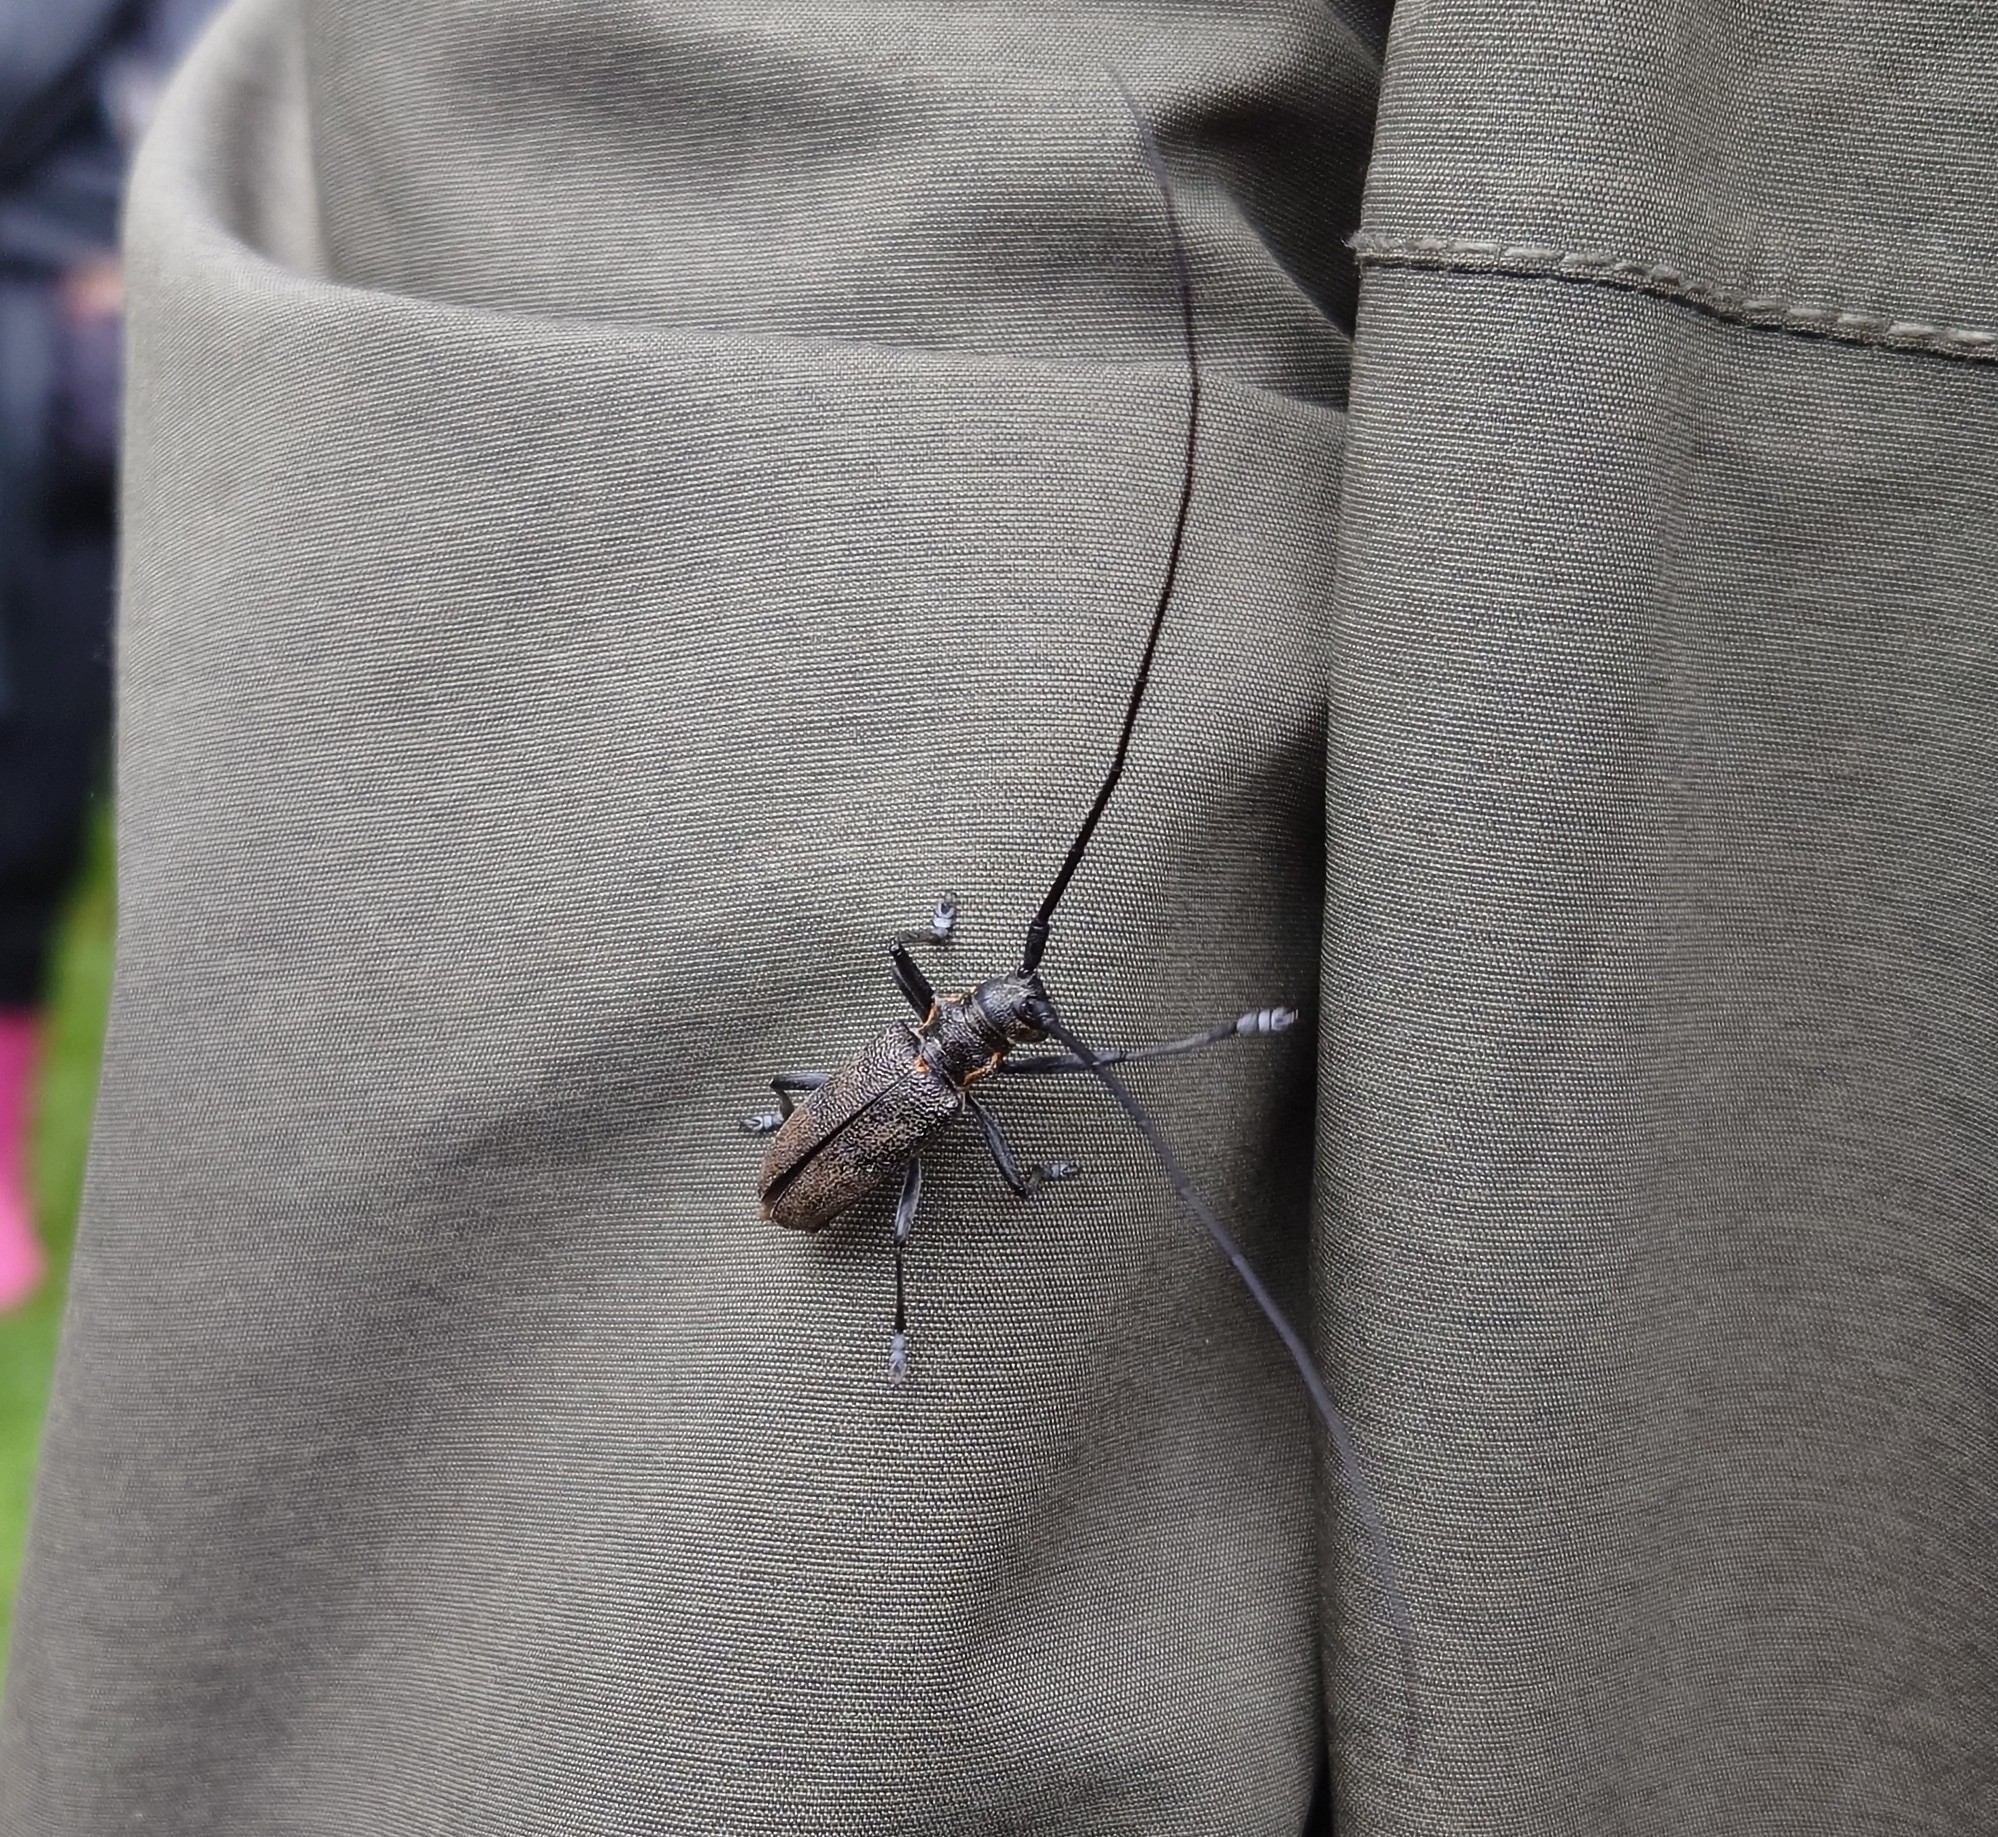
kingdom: Animalia
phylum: Arthropoda
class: Insecta
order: Coleoptera
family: Cerambycidae
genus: Monochamus
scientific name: Monochamus galloprovincialis
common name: Pine sawyer
